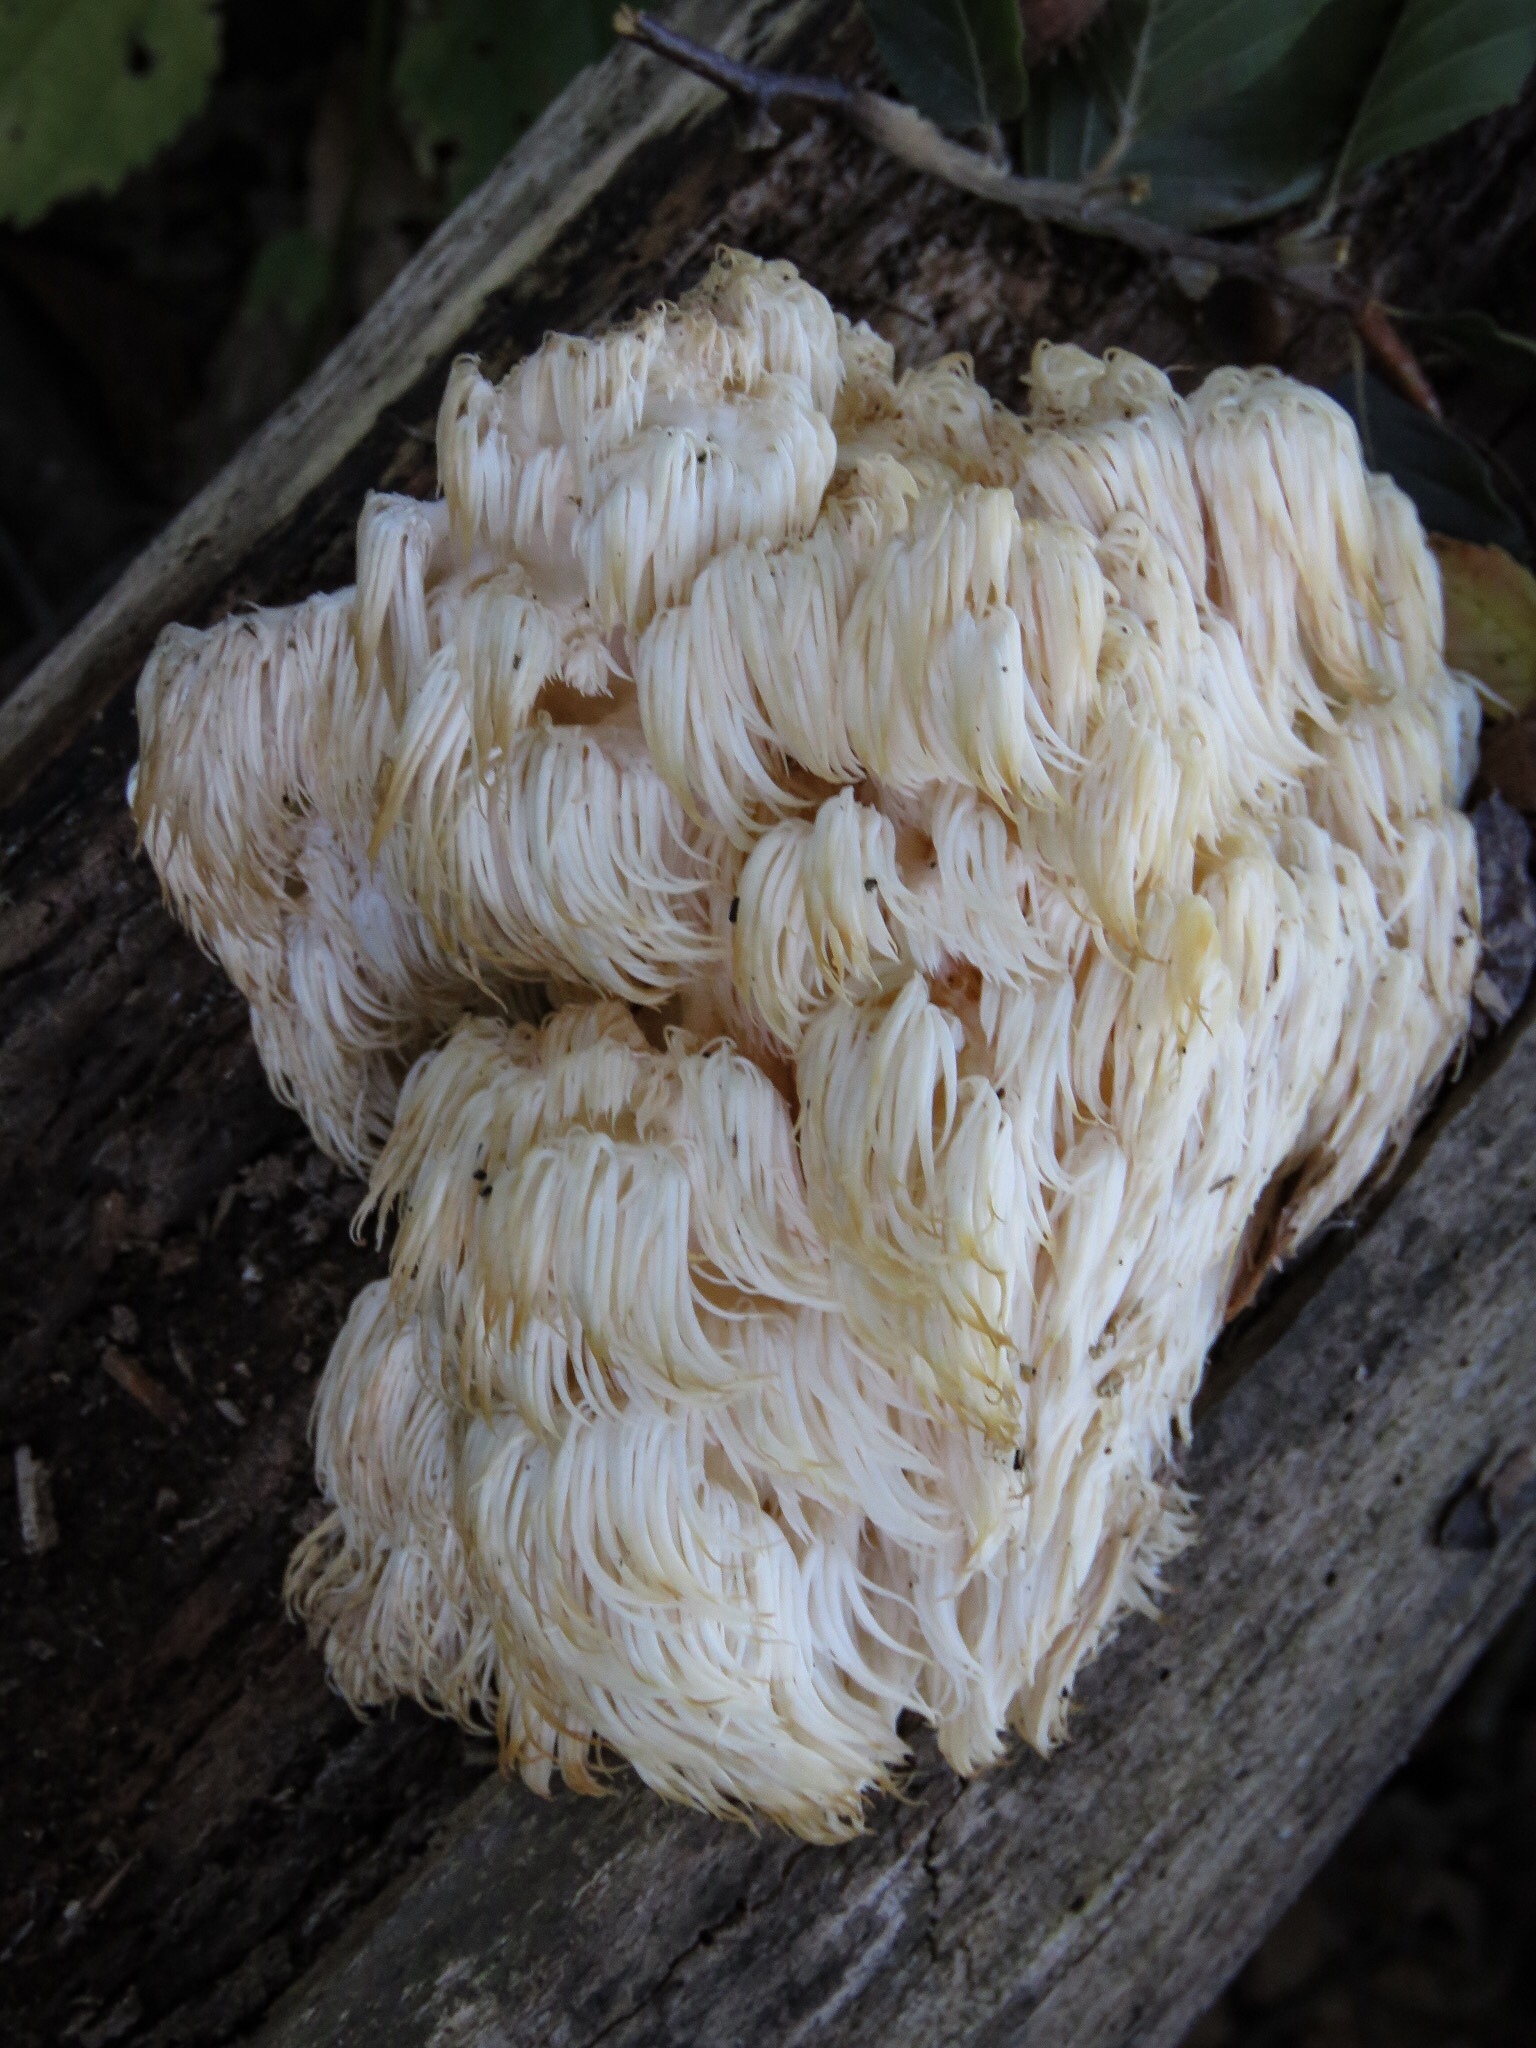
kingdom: Fungi
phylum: Basidiomycota
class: Agaricomycetes
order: Russulales
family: Hericiaceae
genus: Hericium
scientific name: Hericium americanum
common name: Bear's head tooth
